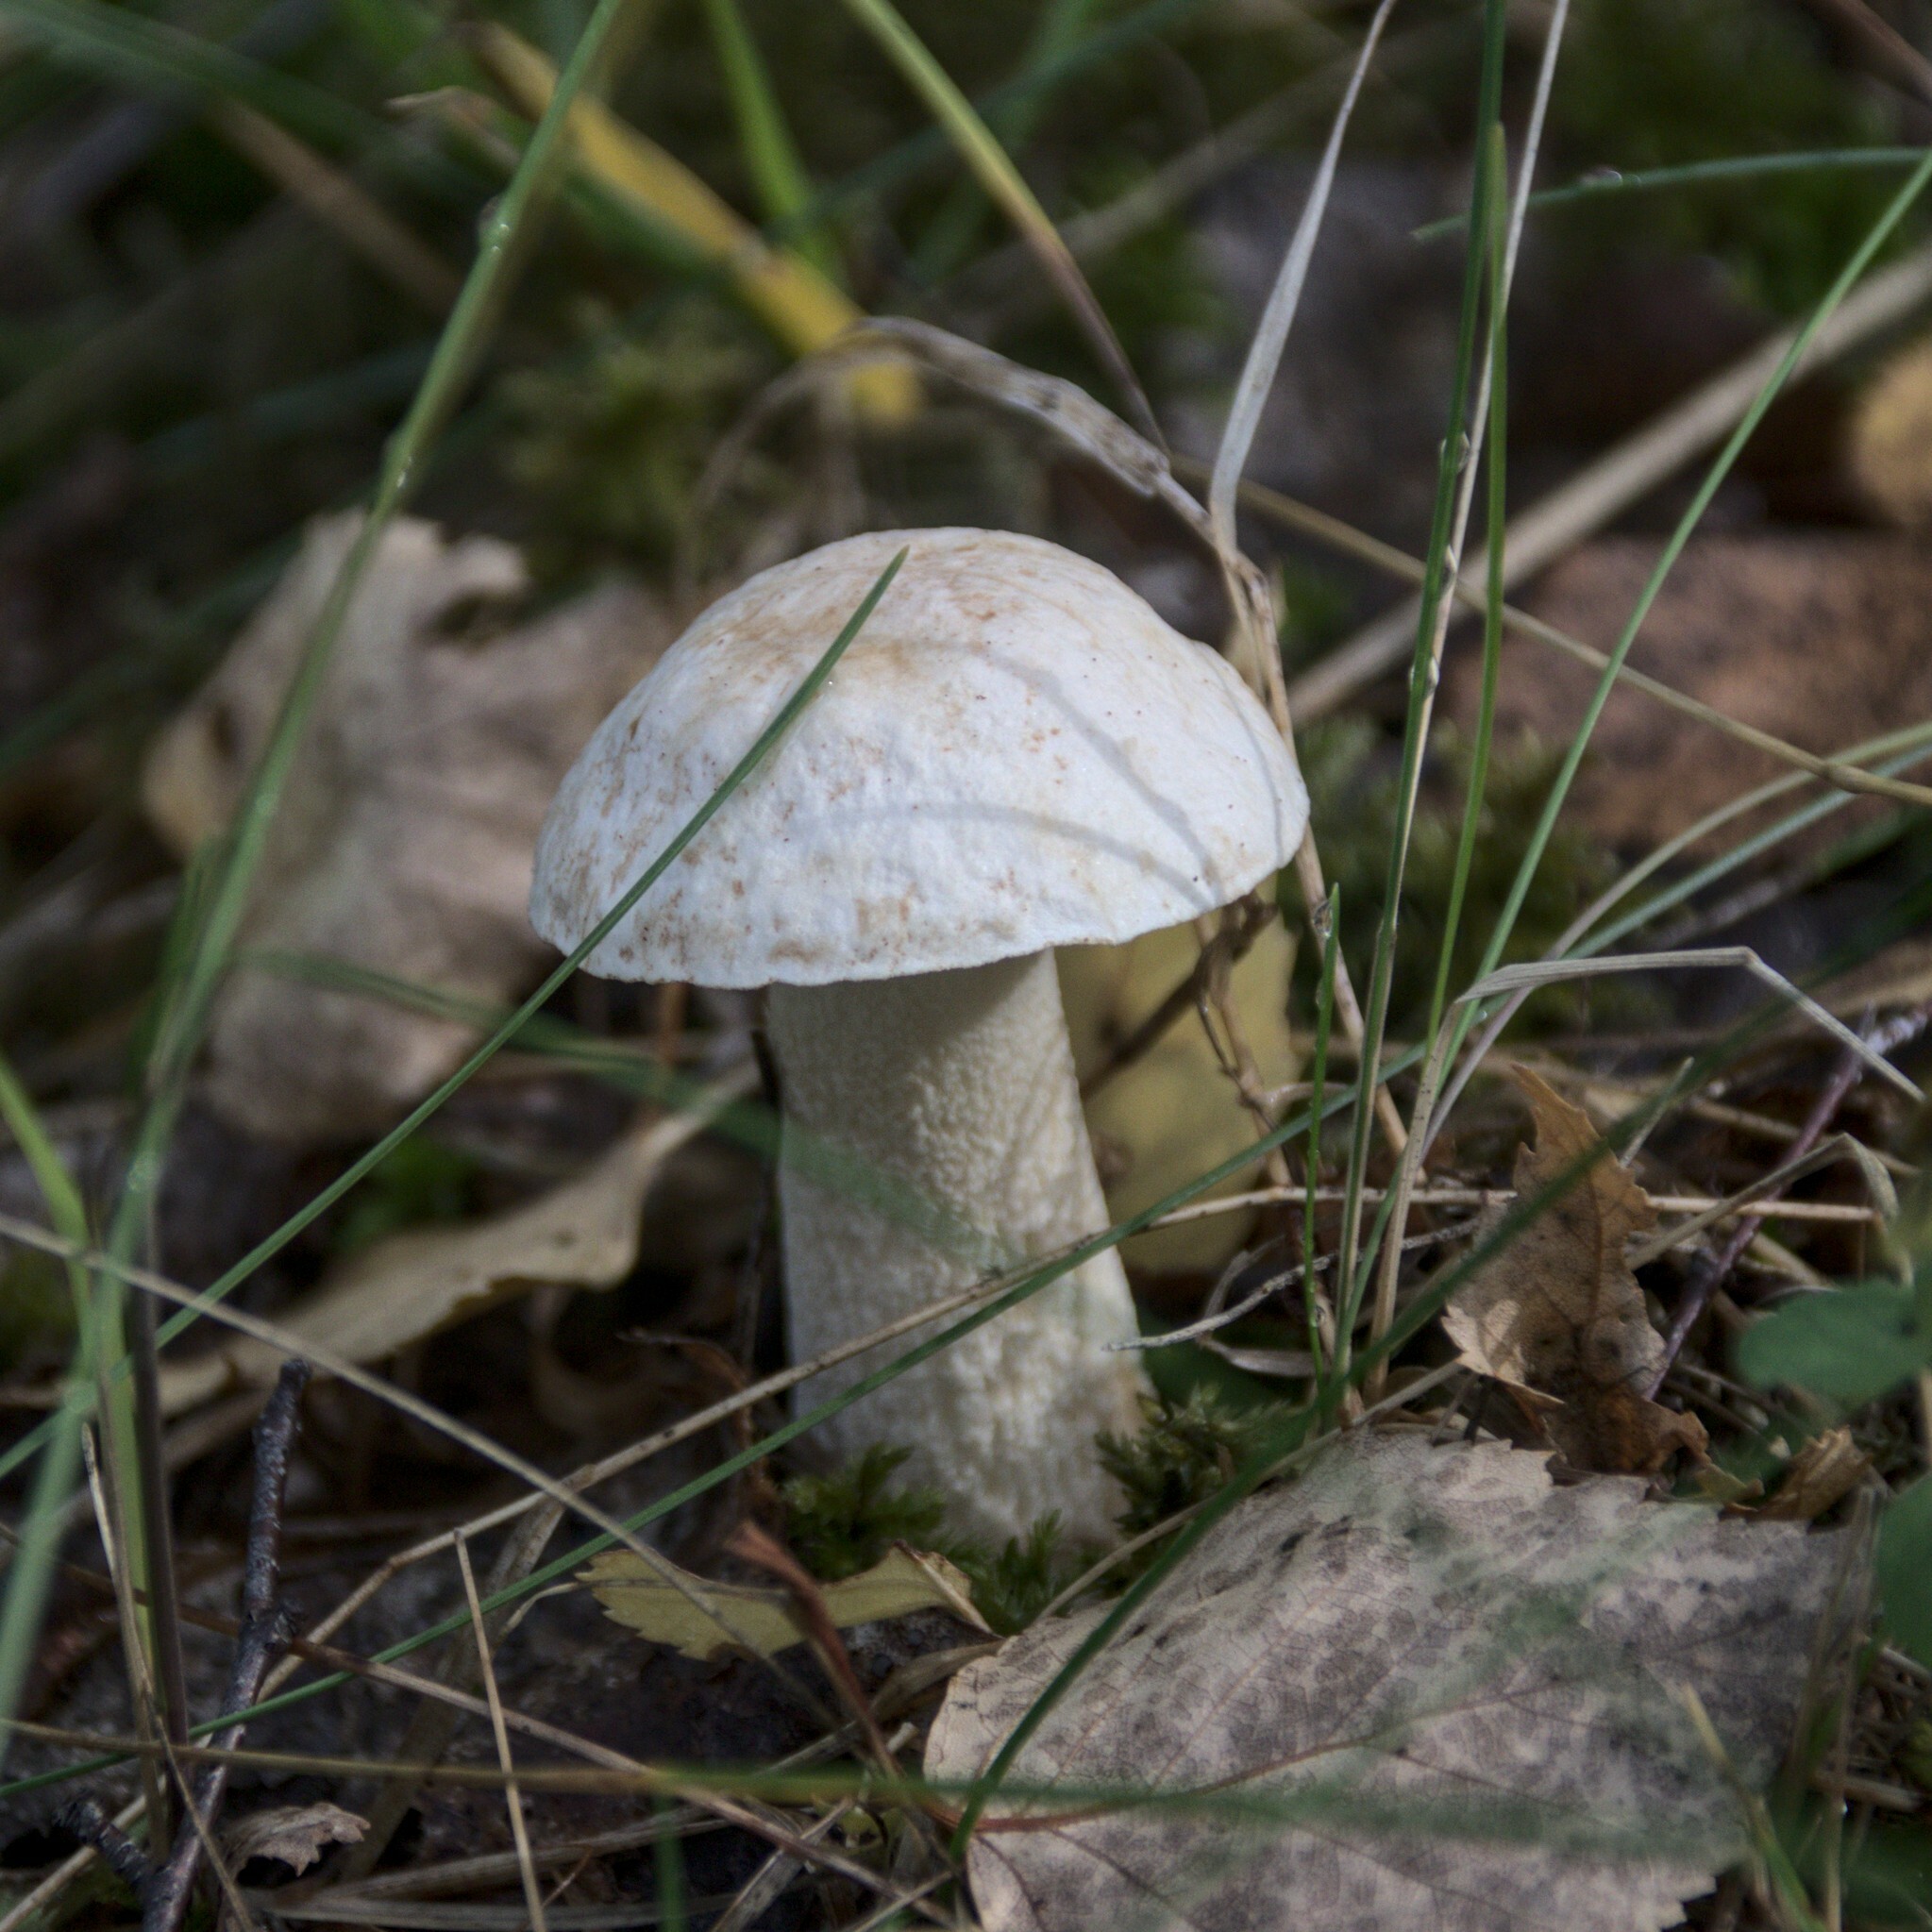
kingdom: Fungi
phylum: Basidiomycota
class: Agaricomycetes
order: Boletales
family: Boletaceae
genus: Leccinum
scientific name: Leccinum scabrum
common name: Blushing bolete
